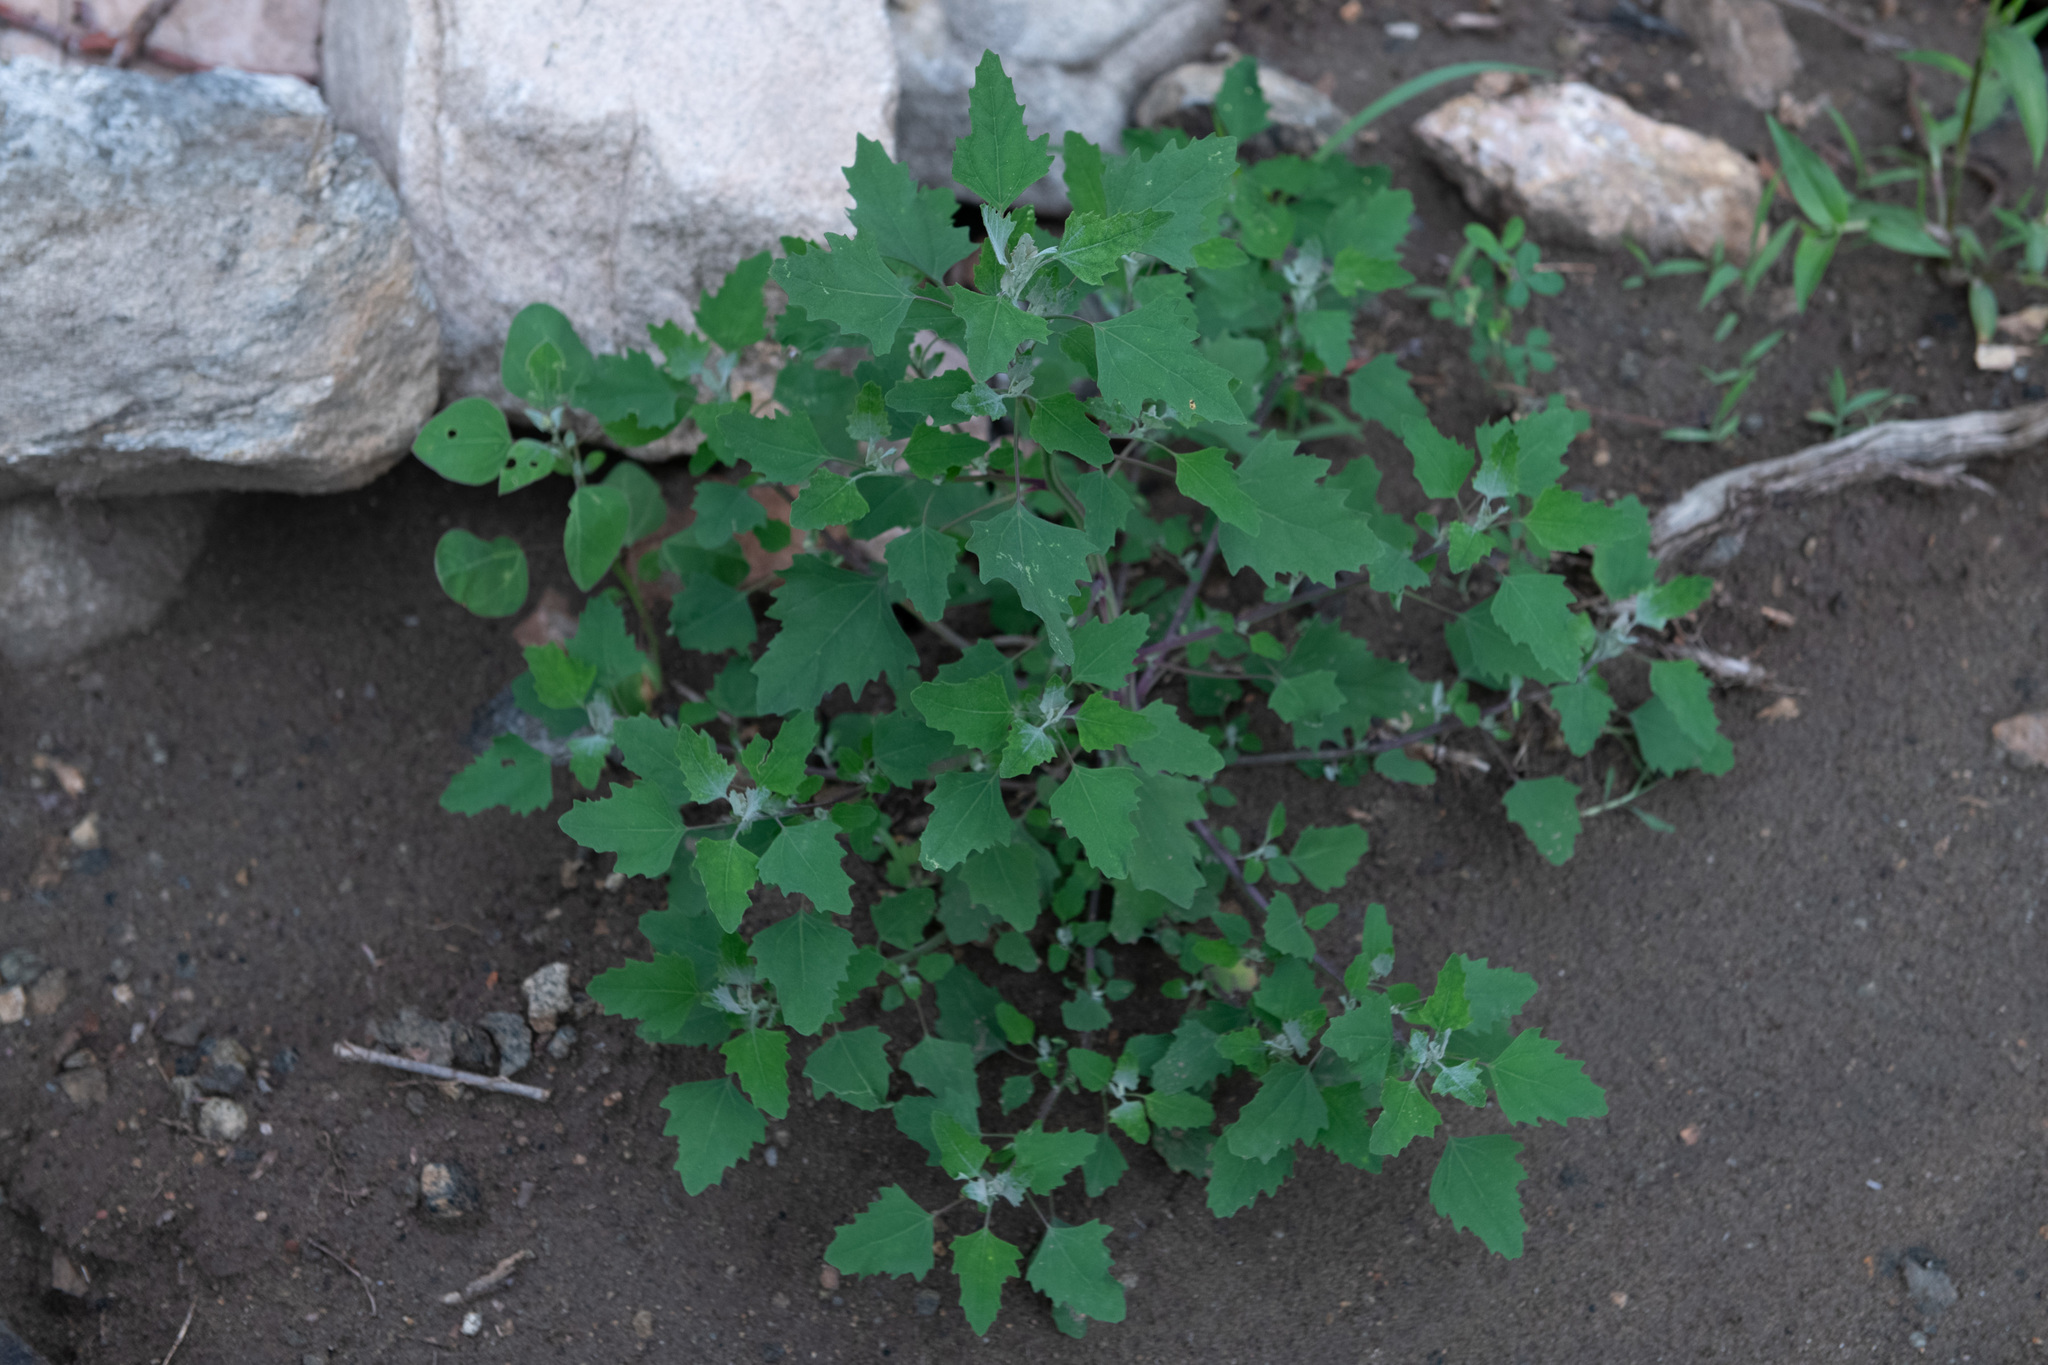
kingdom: Plantae
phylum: Tracheophyta
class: Magnoliopsida
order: Caryophyllales
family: Amaranthaceae
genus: Chenopodium
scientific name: Chenopodium album
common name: Fat-hen
